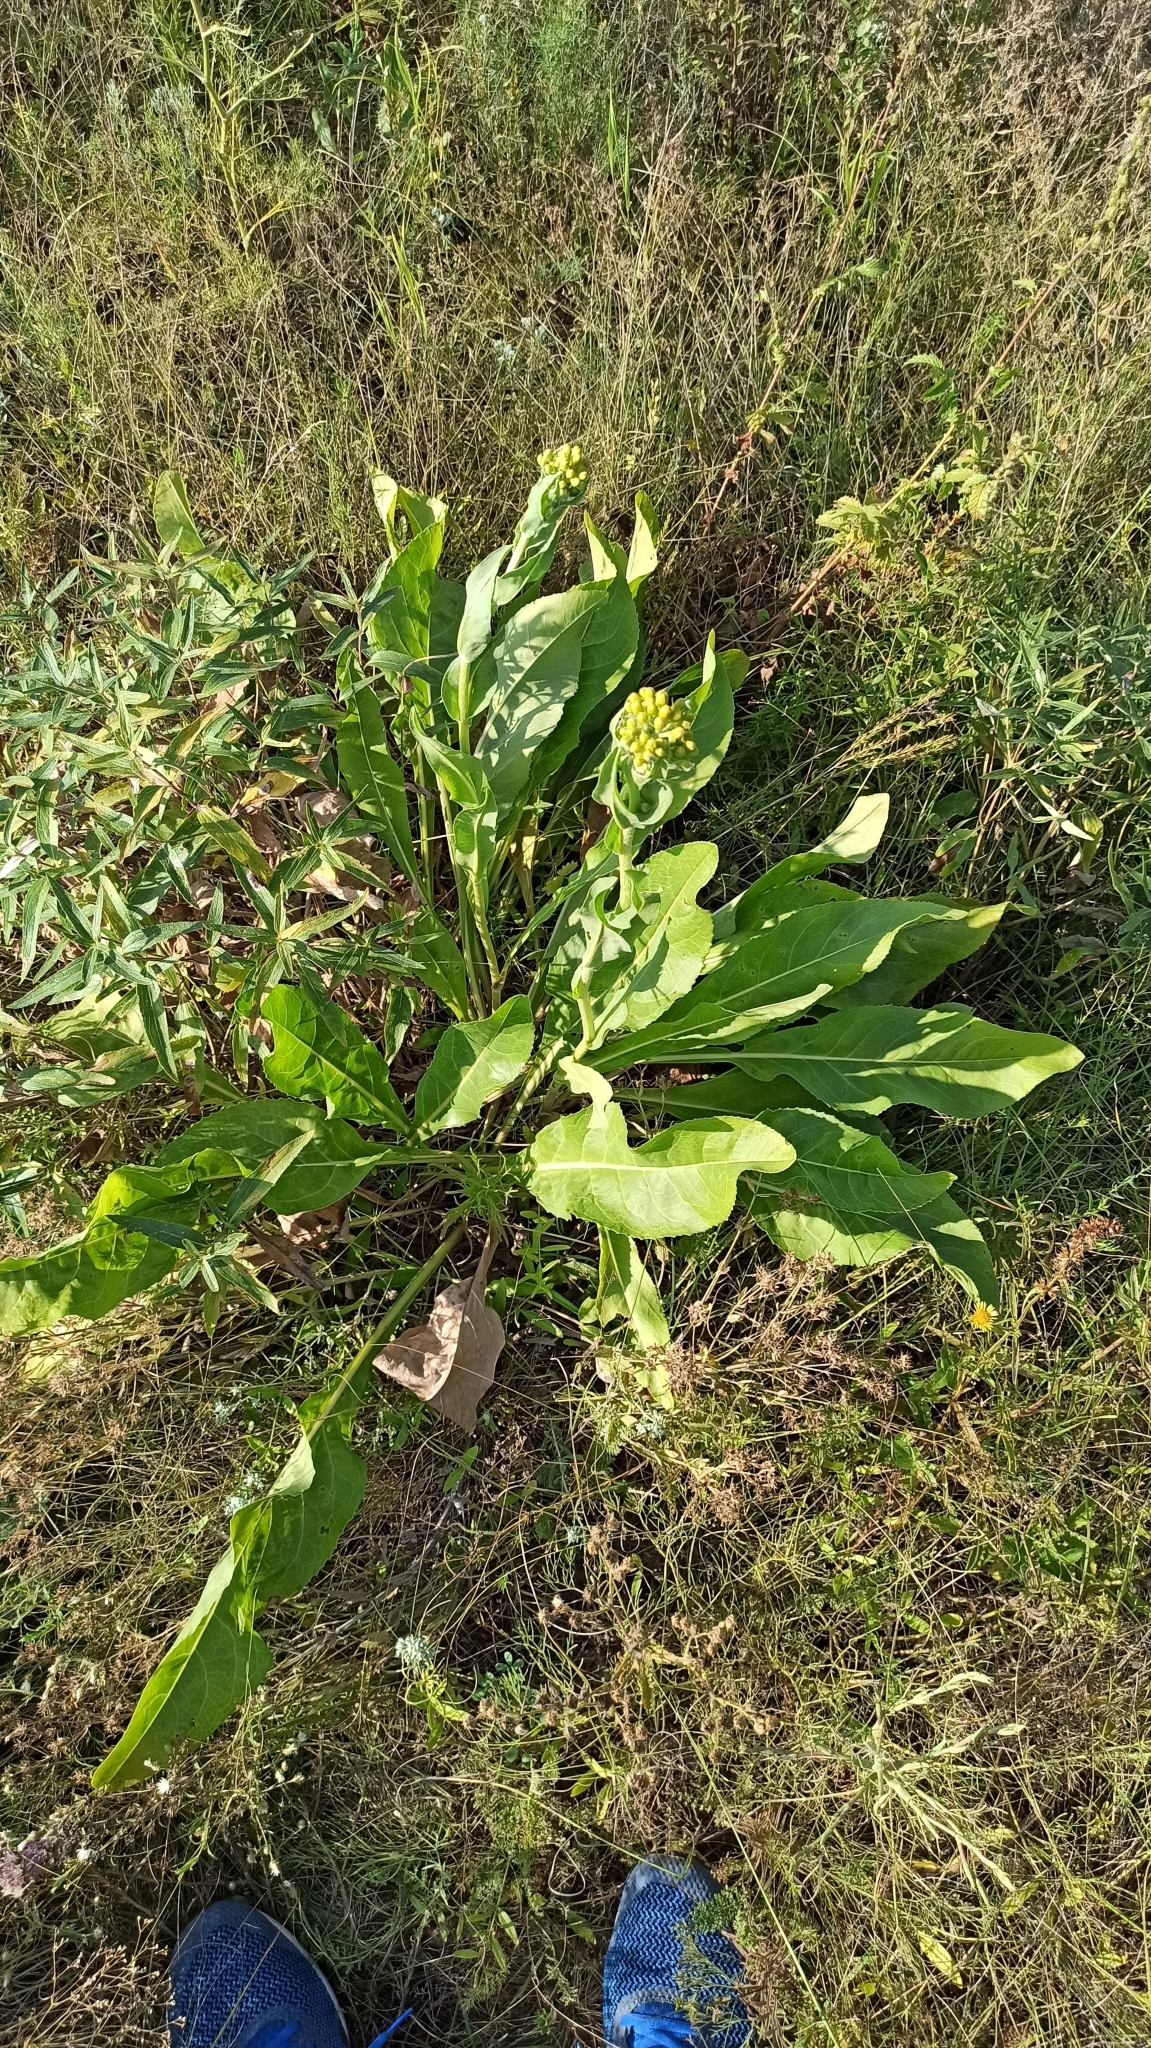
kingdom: Plantae
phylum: Tracheophyta
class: Magnoliopsida
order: Asterales
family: Asteraceae
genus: Senecio
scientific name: Senecio doria
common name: Golden ragwort
